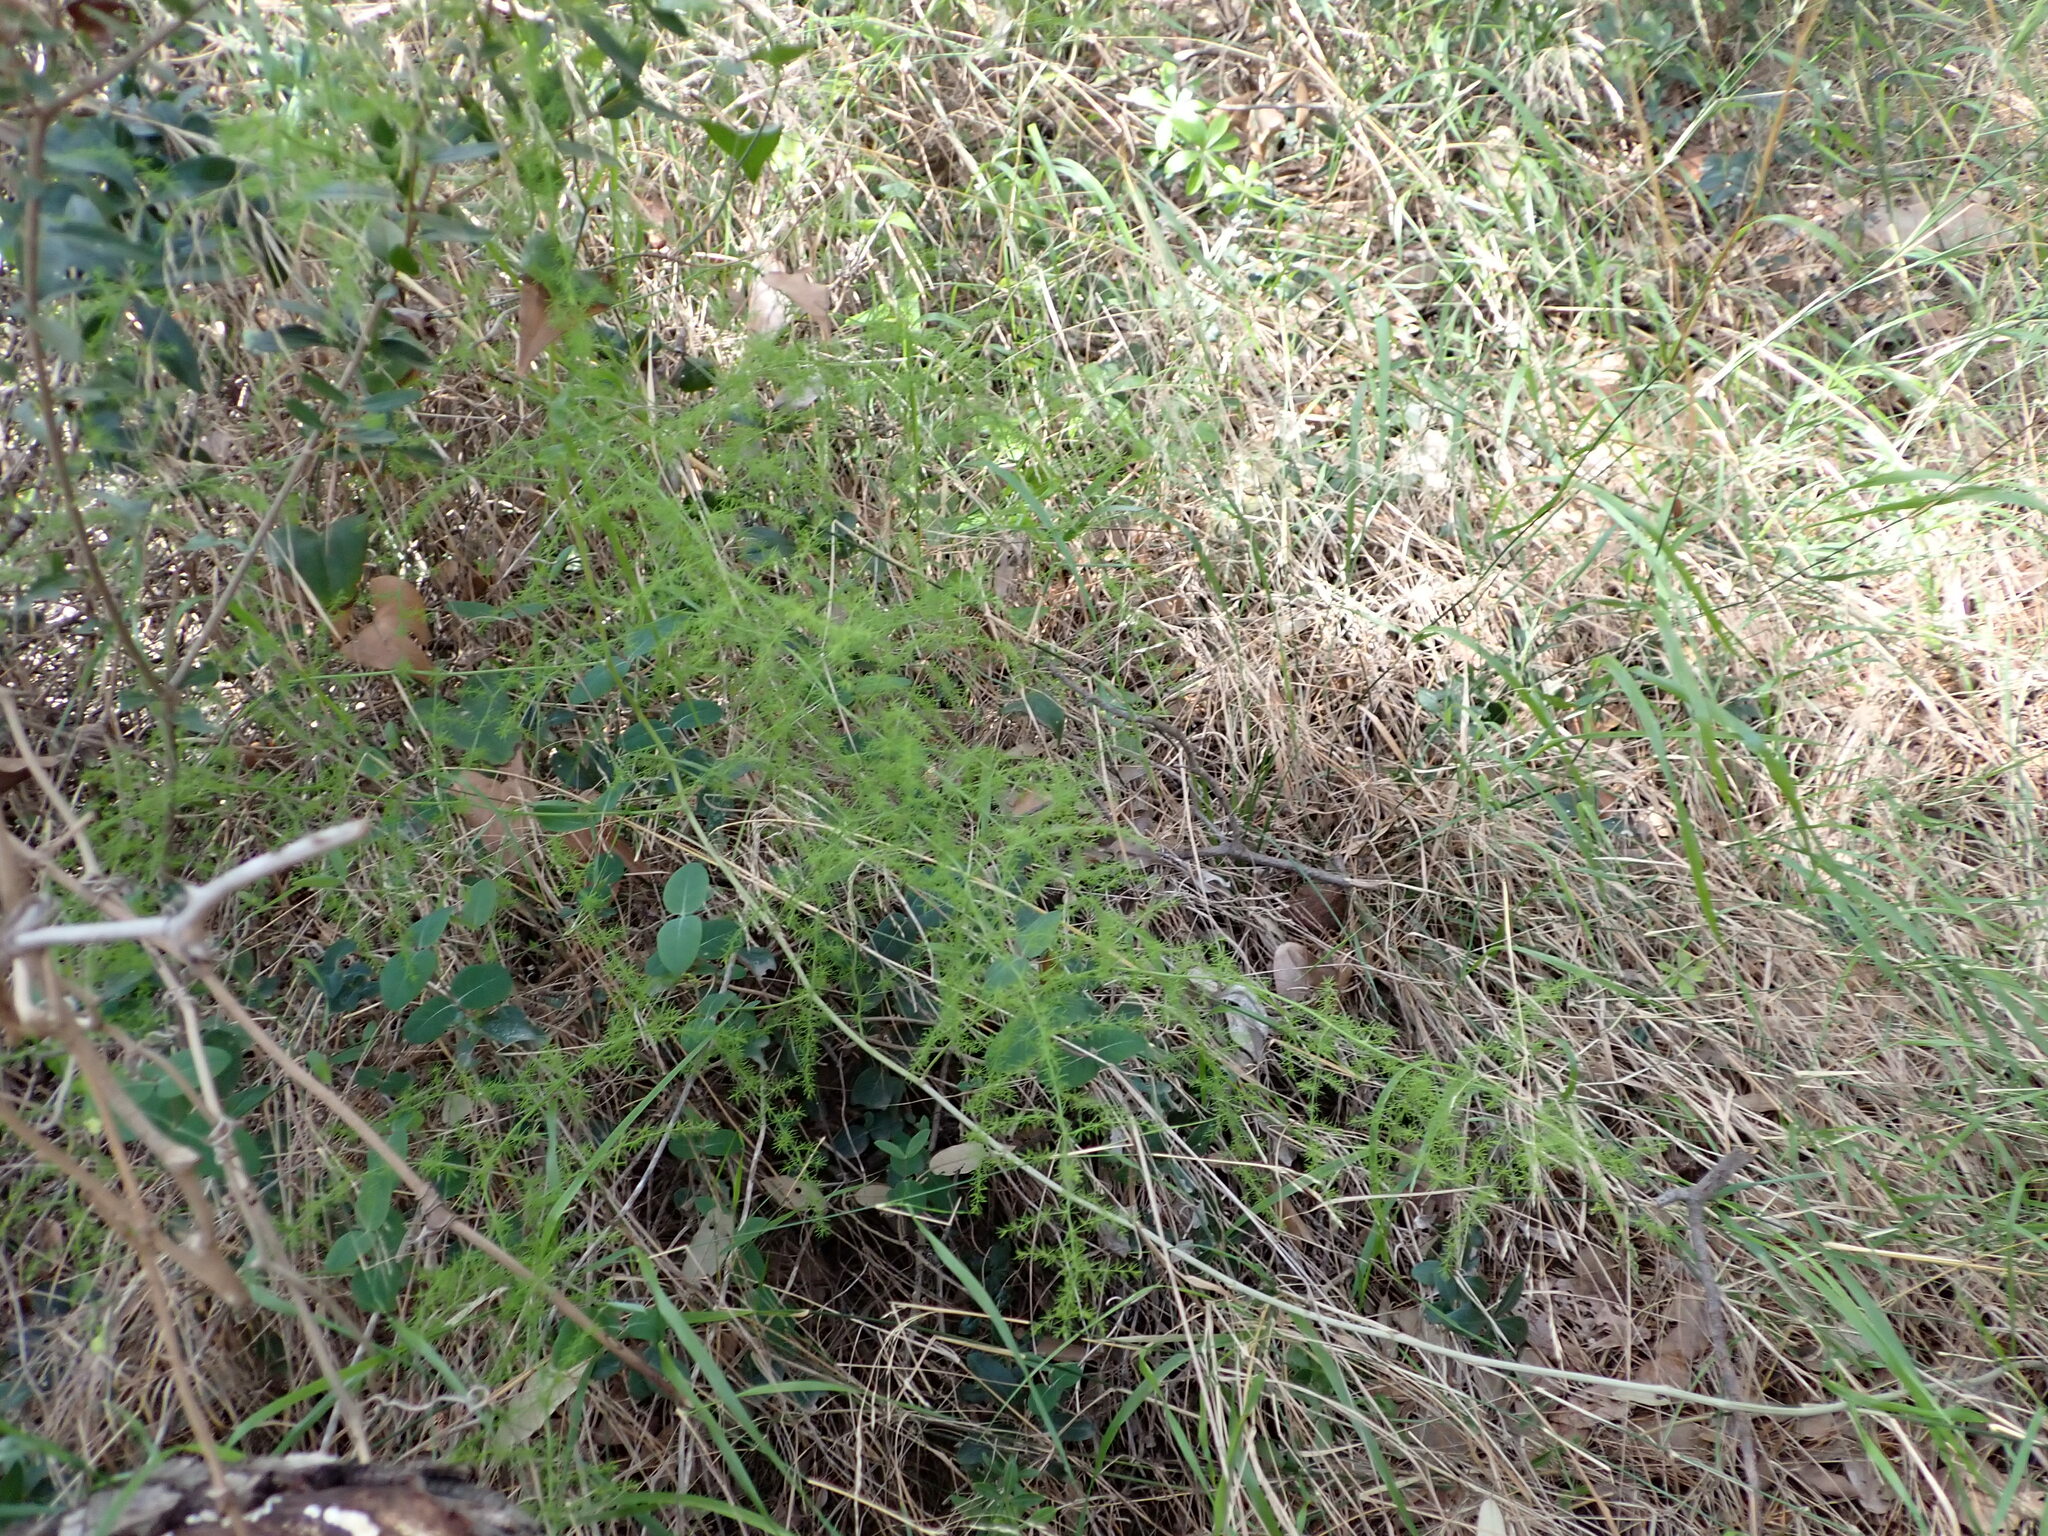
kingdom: Plantae
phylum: Tracheophyta
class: Liliopsida
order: Asparagales
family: Asparagaceae
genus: Asparagus
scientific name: Asparagus acutifolius
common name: Wild asparagus
